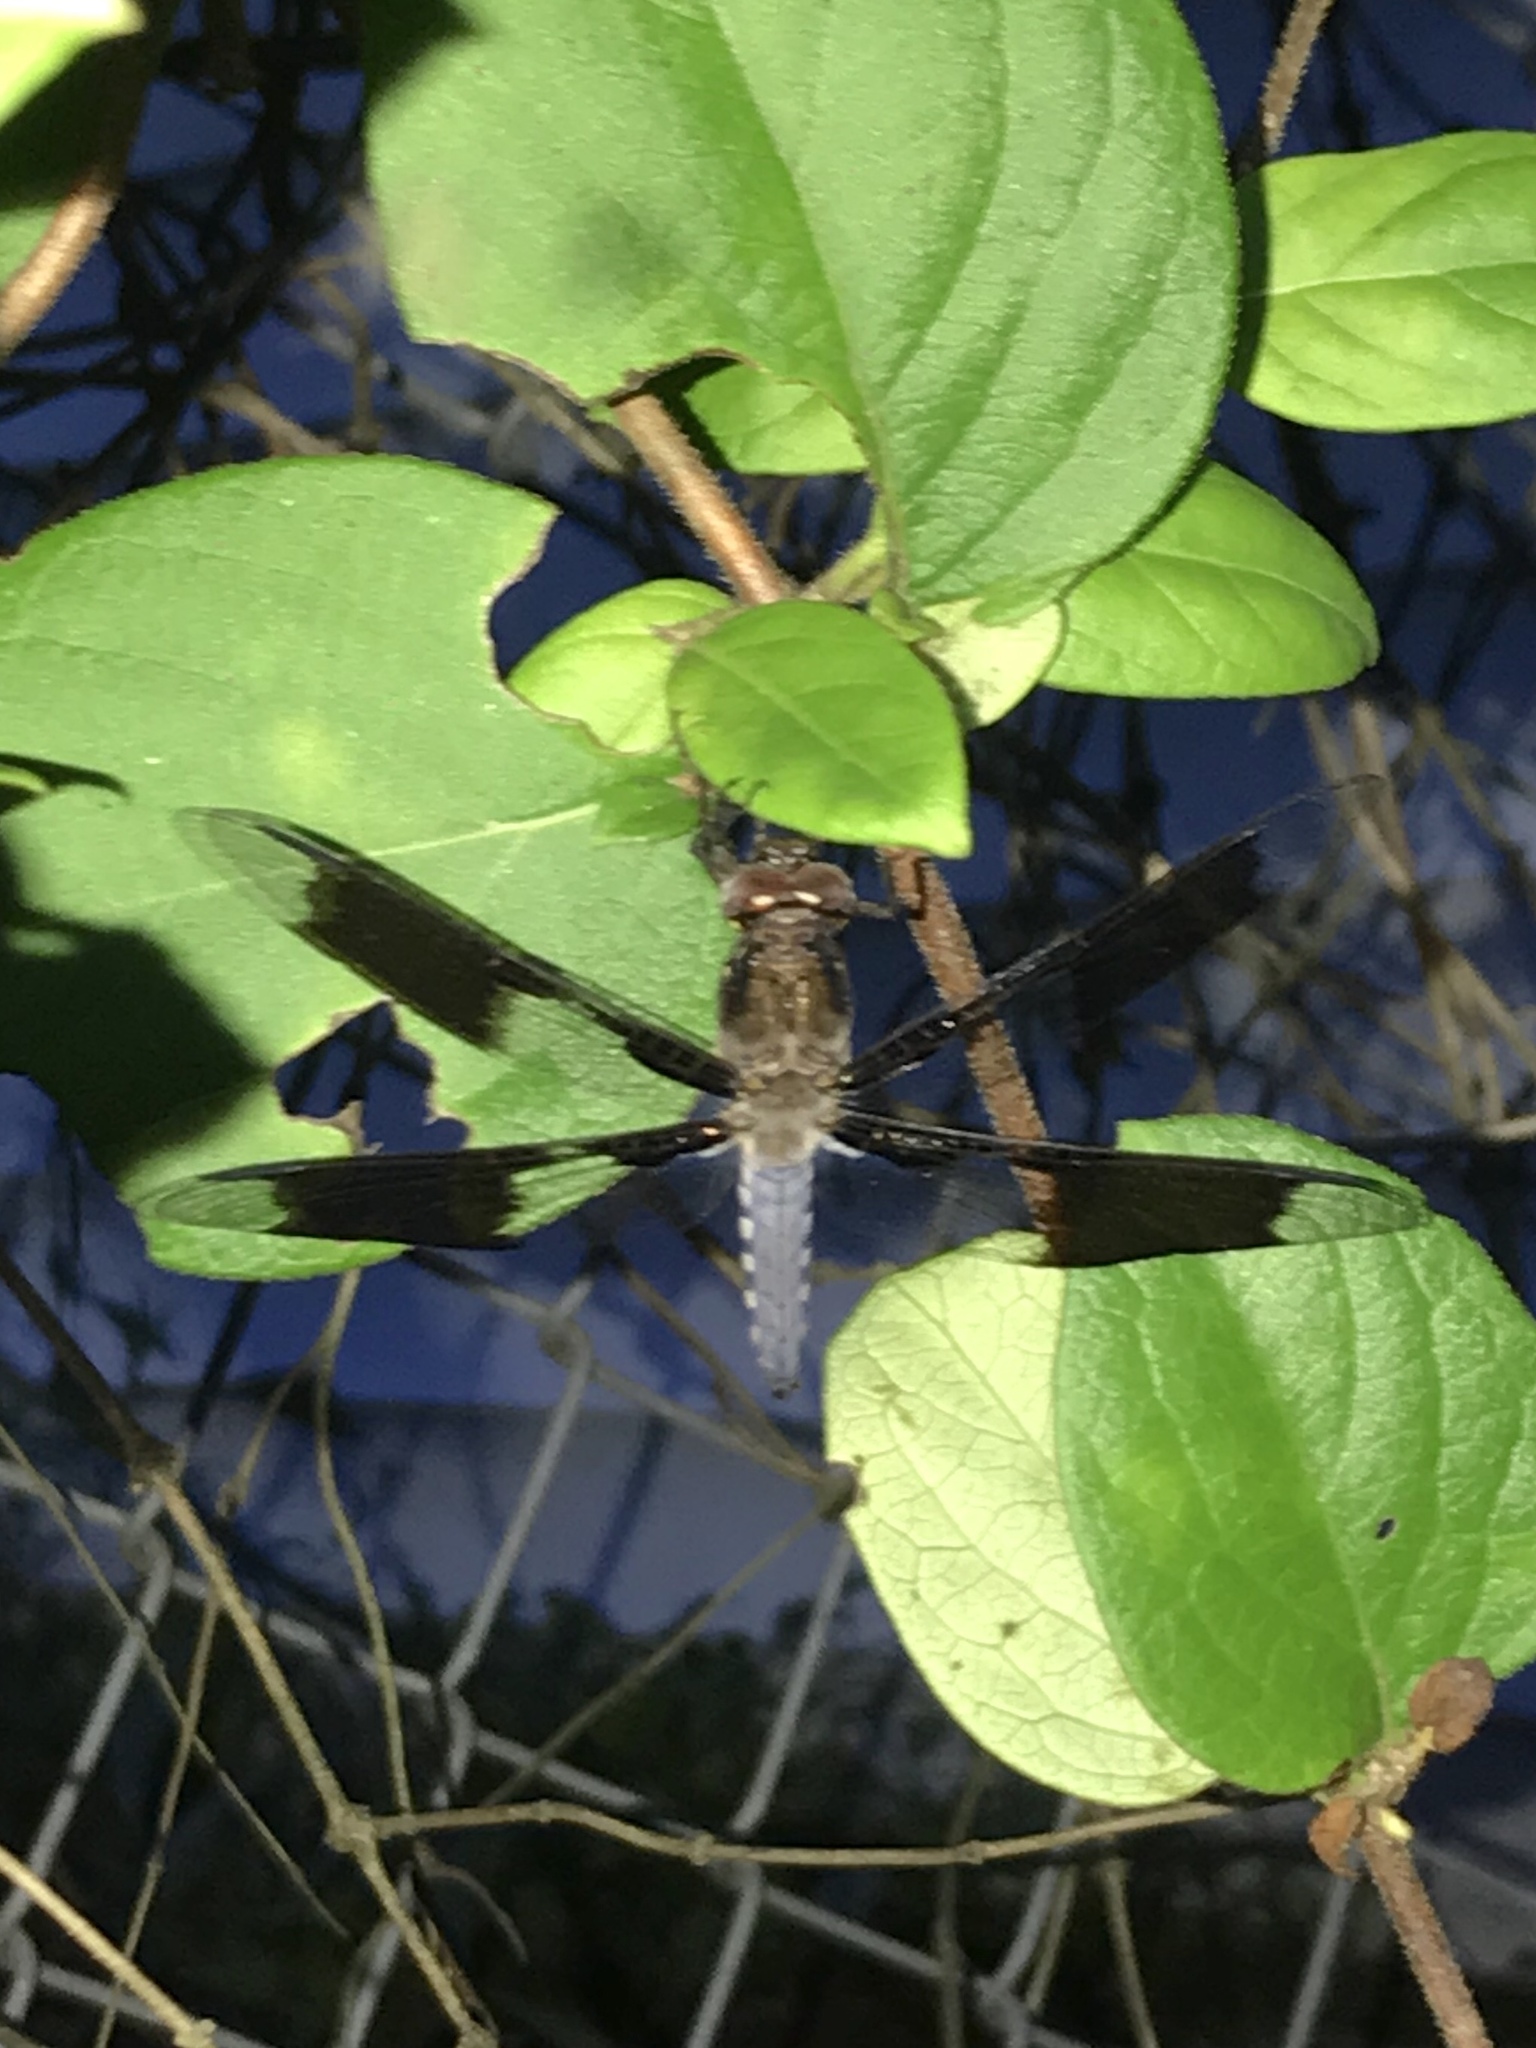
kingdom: Animalia
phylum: Arthropoda
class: Insecta
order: Odonata
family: Libellulidae
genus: Plathemis
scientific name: Plathemis lydia
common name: Common whitetail
